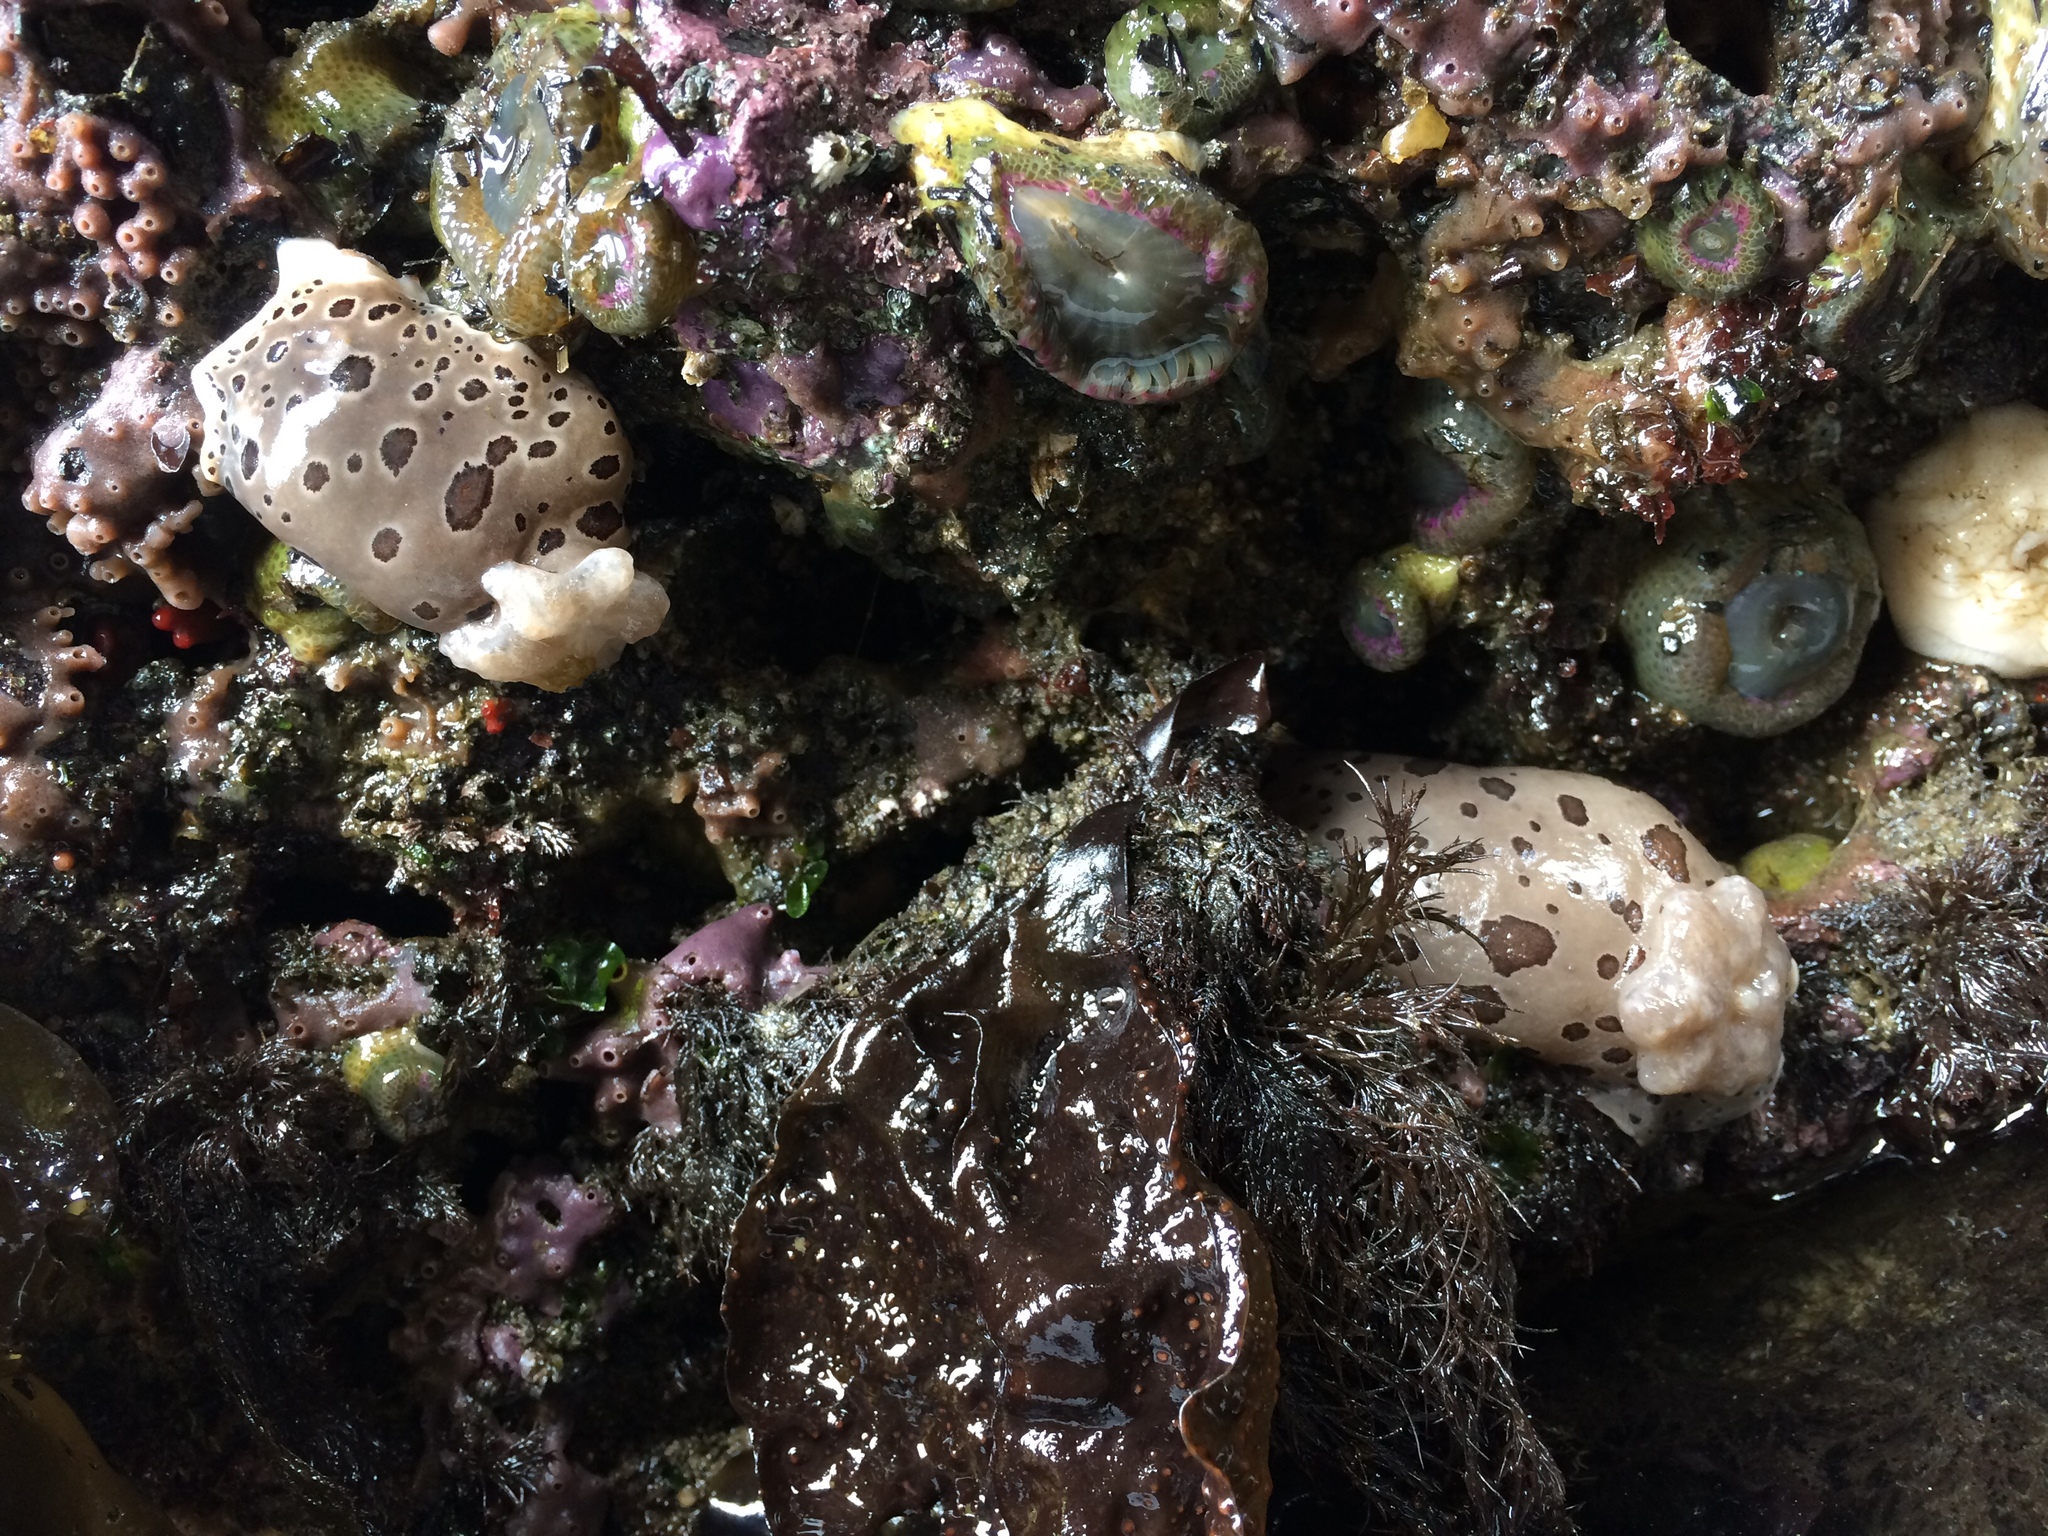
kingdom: Animalia
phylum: Mollusca
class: Gastropoda
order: Nudibranchia
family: Discodorididae
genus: Diaulula
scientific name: Diaulula odonoghuei
